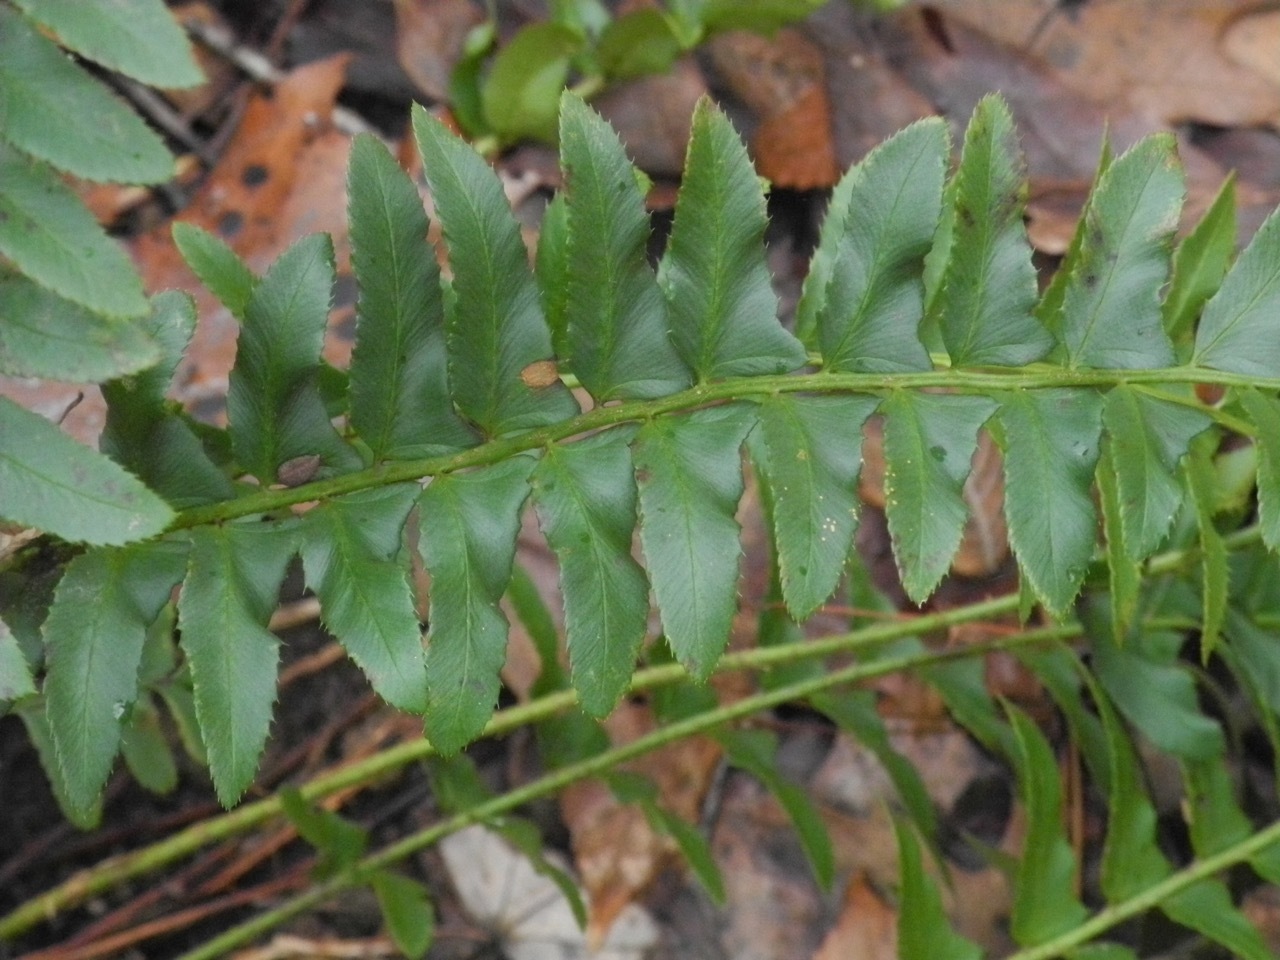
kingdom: Plantae
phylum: Tracheophyta
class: Polypodiopsida
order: Polypodiales
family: Dryopteridaceae
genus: Polystichum
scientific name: Polystichum acrostichoides
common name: Christmas fern
